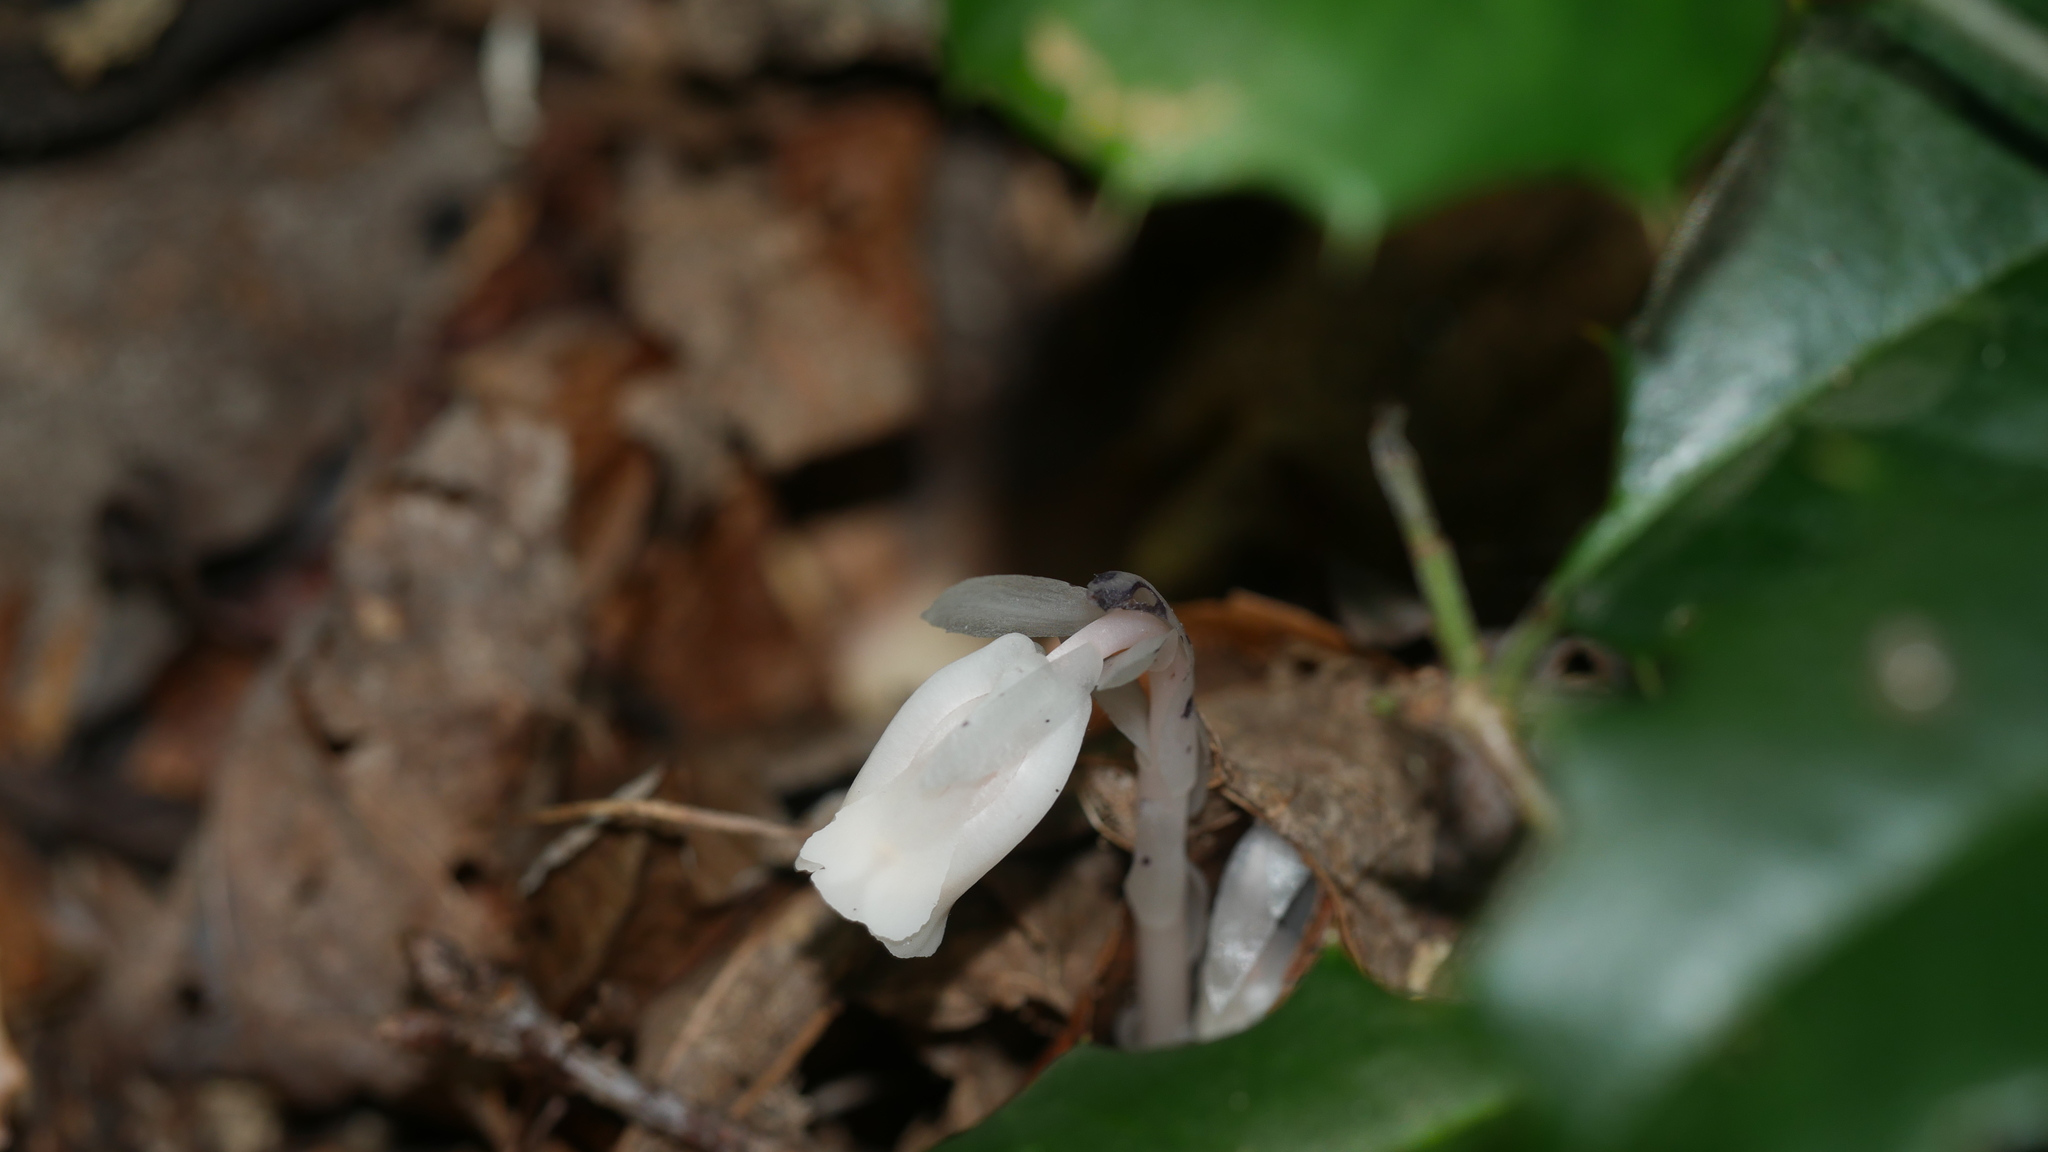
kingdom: Plantae
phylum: Tracheophyta
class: Magnoliopsida
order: Ericales
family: Ericaceae
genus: Monotropa
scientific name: Monotropa uniflora
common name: Convulsion root
